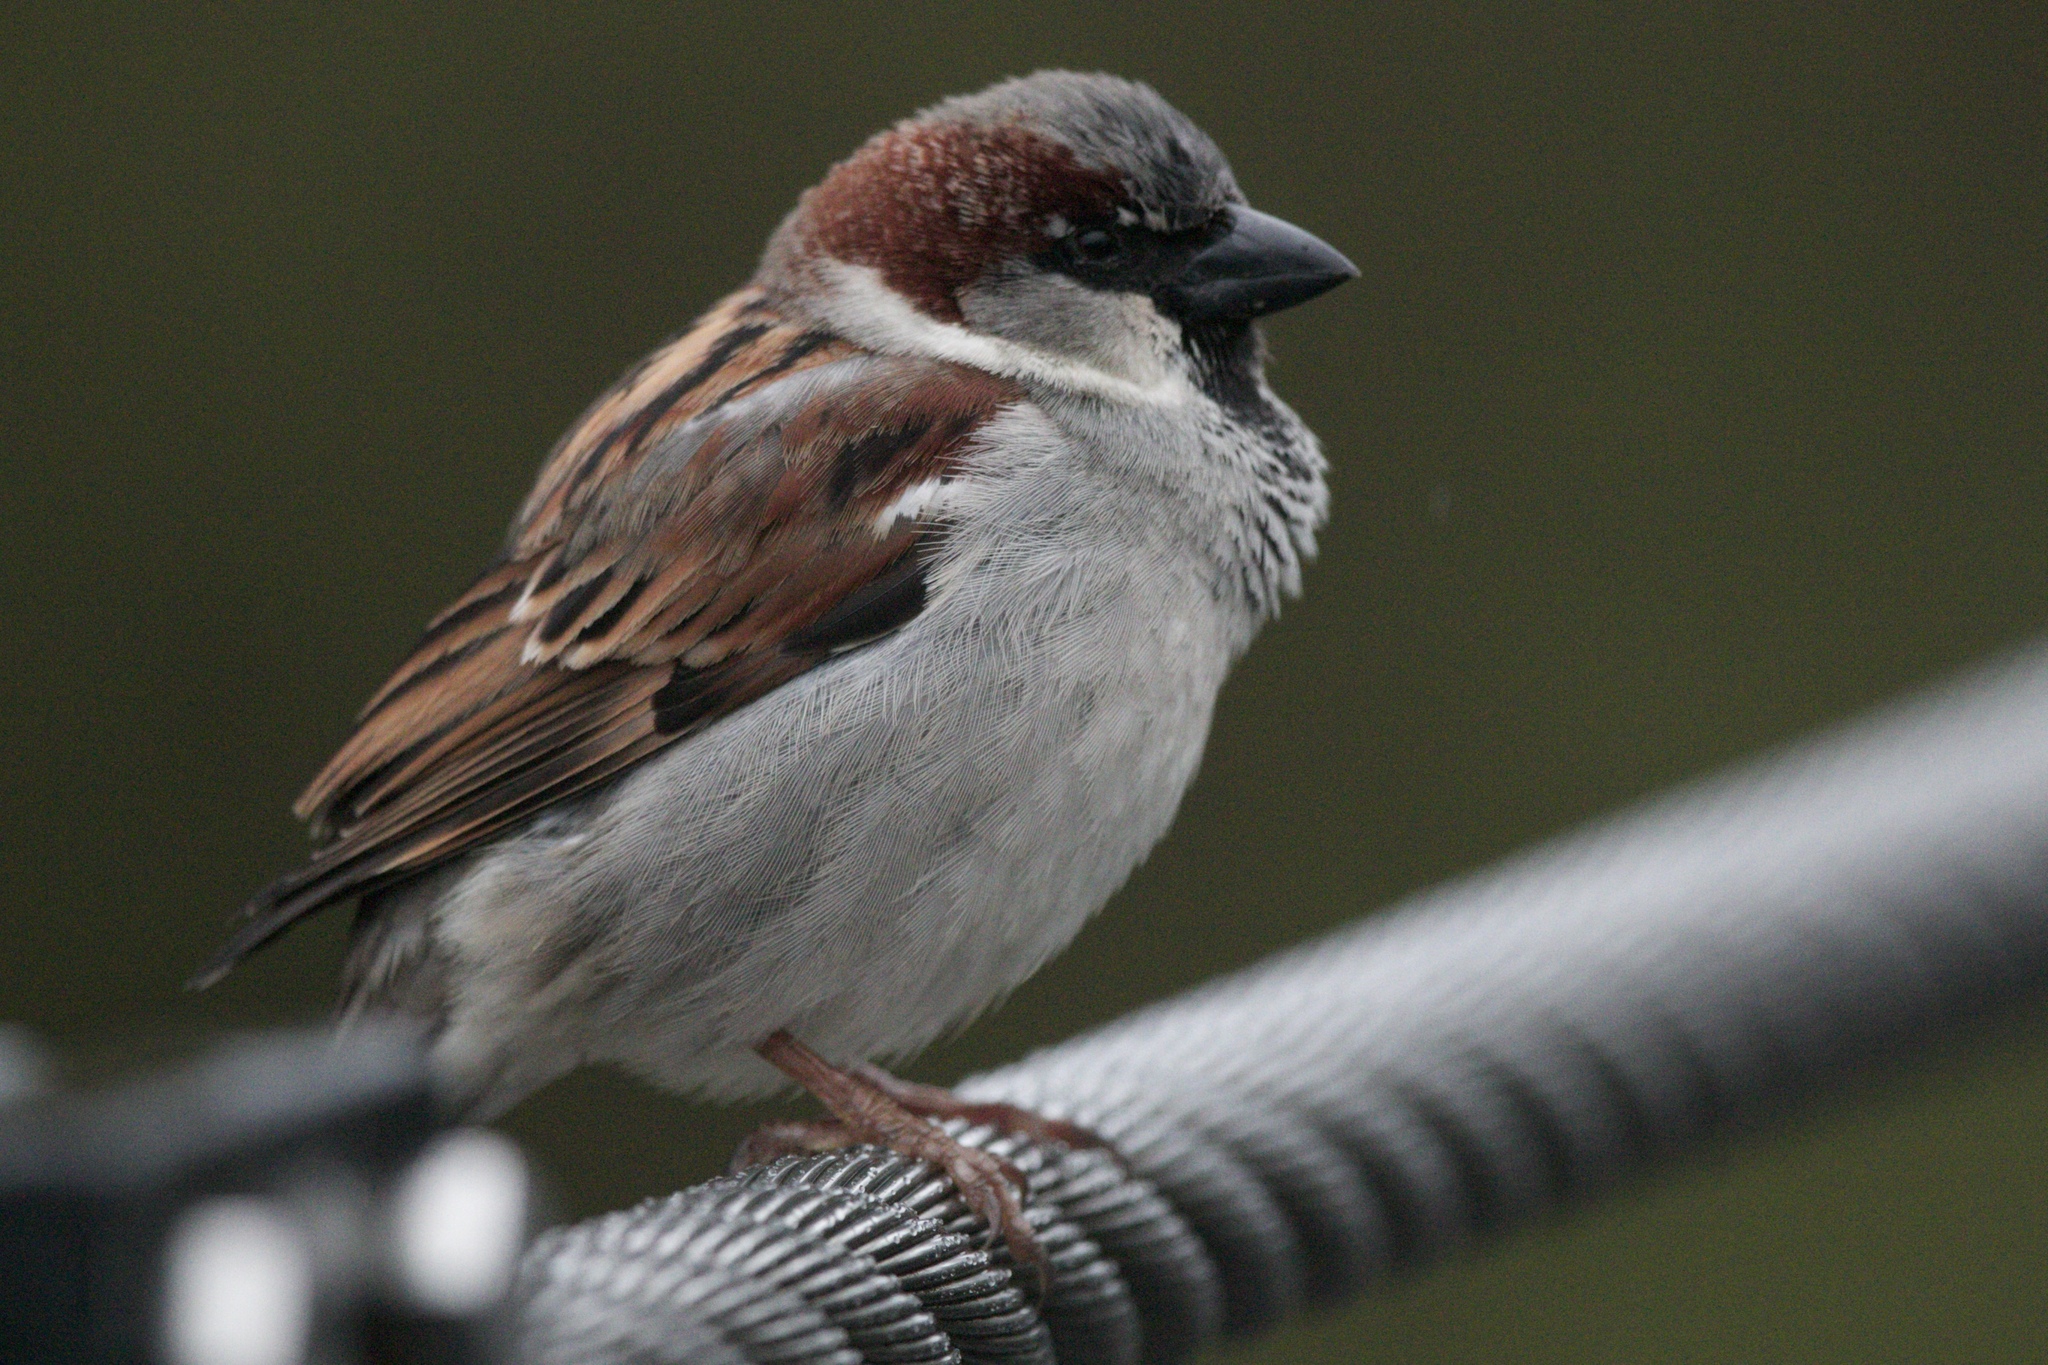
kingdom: Animalia
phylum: Chordata
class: Aves
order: Passeriformes
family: Passeridae
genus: Passer
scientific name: Passer domesticus
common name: House sparrow
